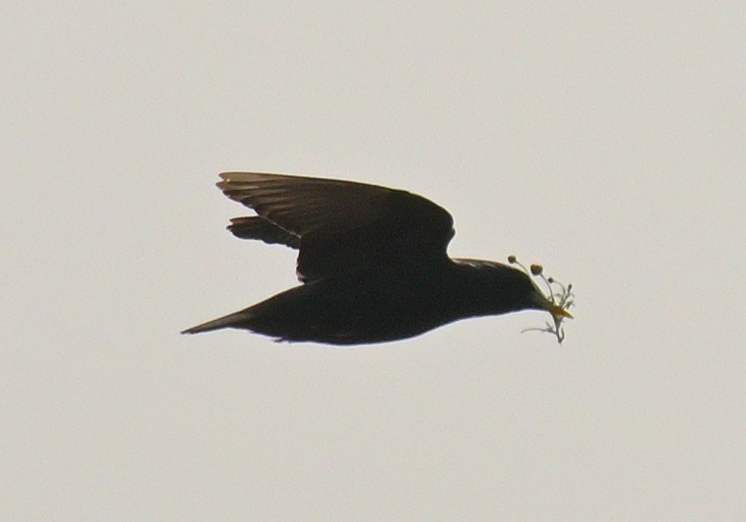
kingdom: Animalia
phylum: Chordata
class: Aves
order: Passeriformes
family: Sturnidae
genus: Sturnus
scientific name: Sturnus unicolor
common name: Spotless starling
